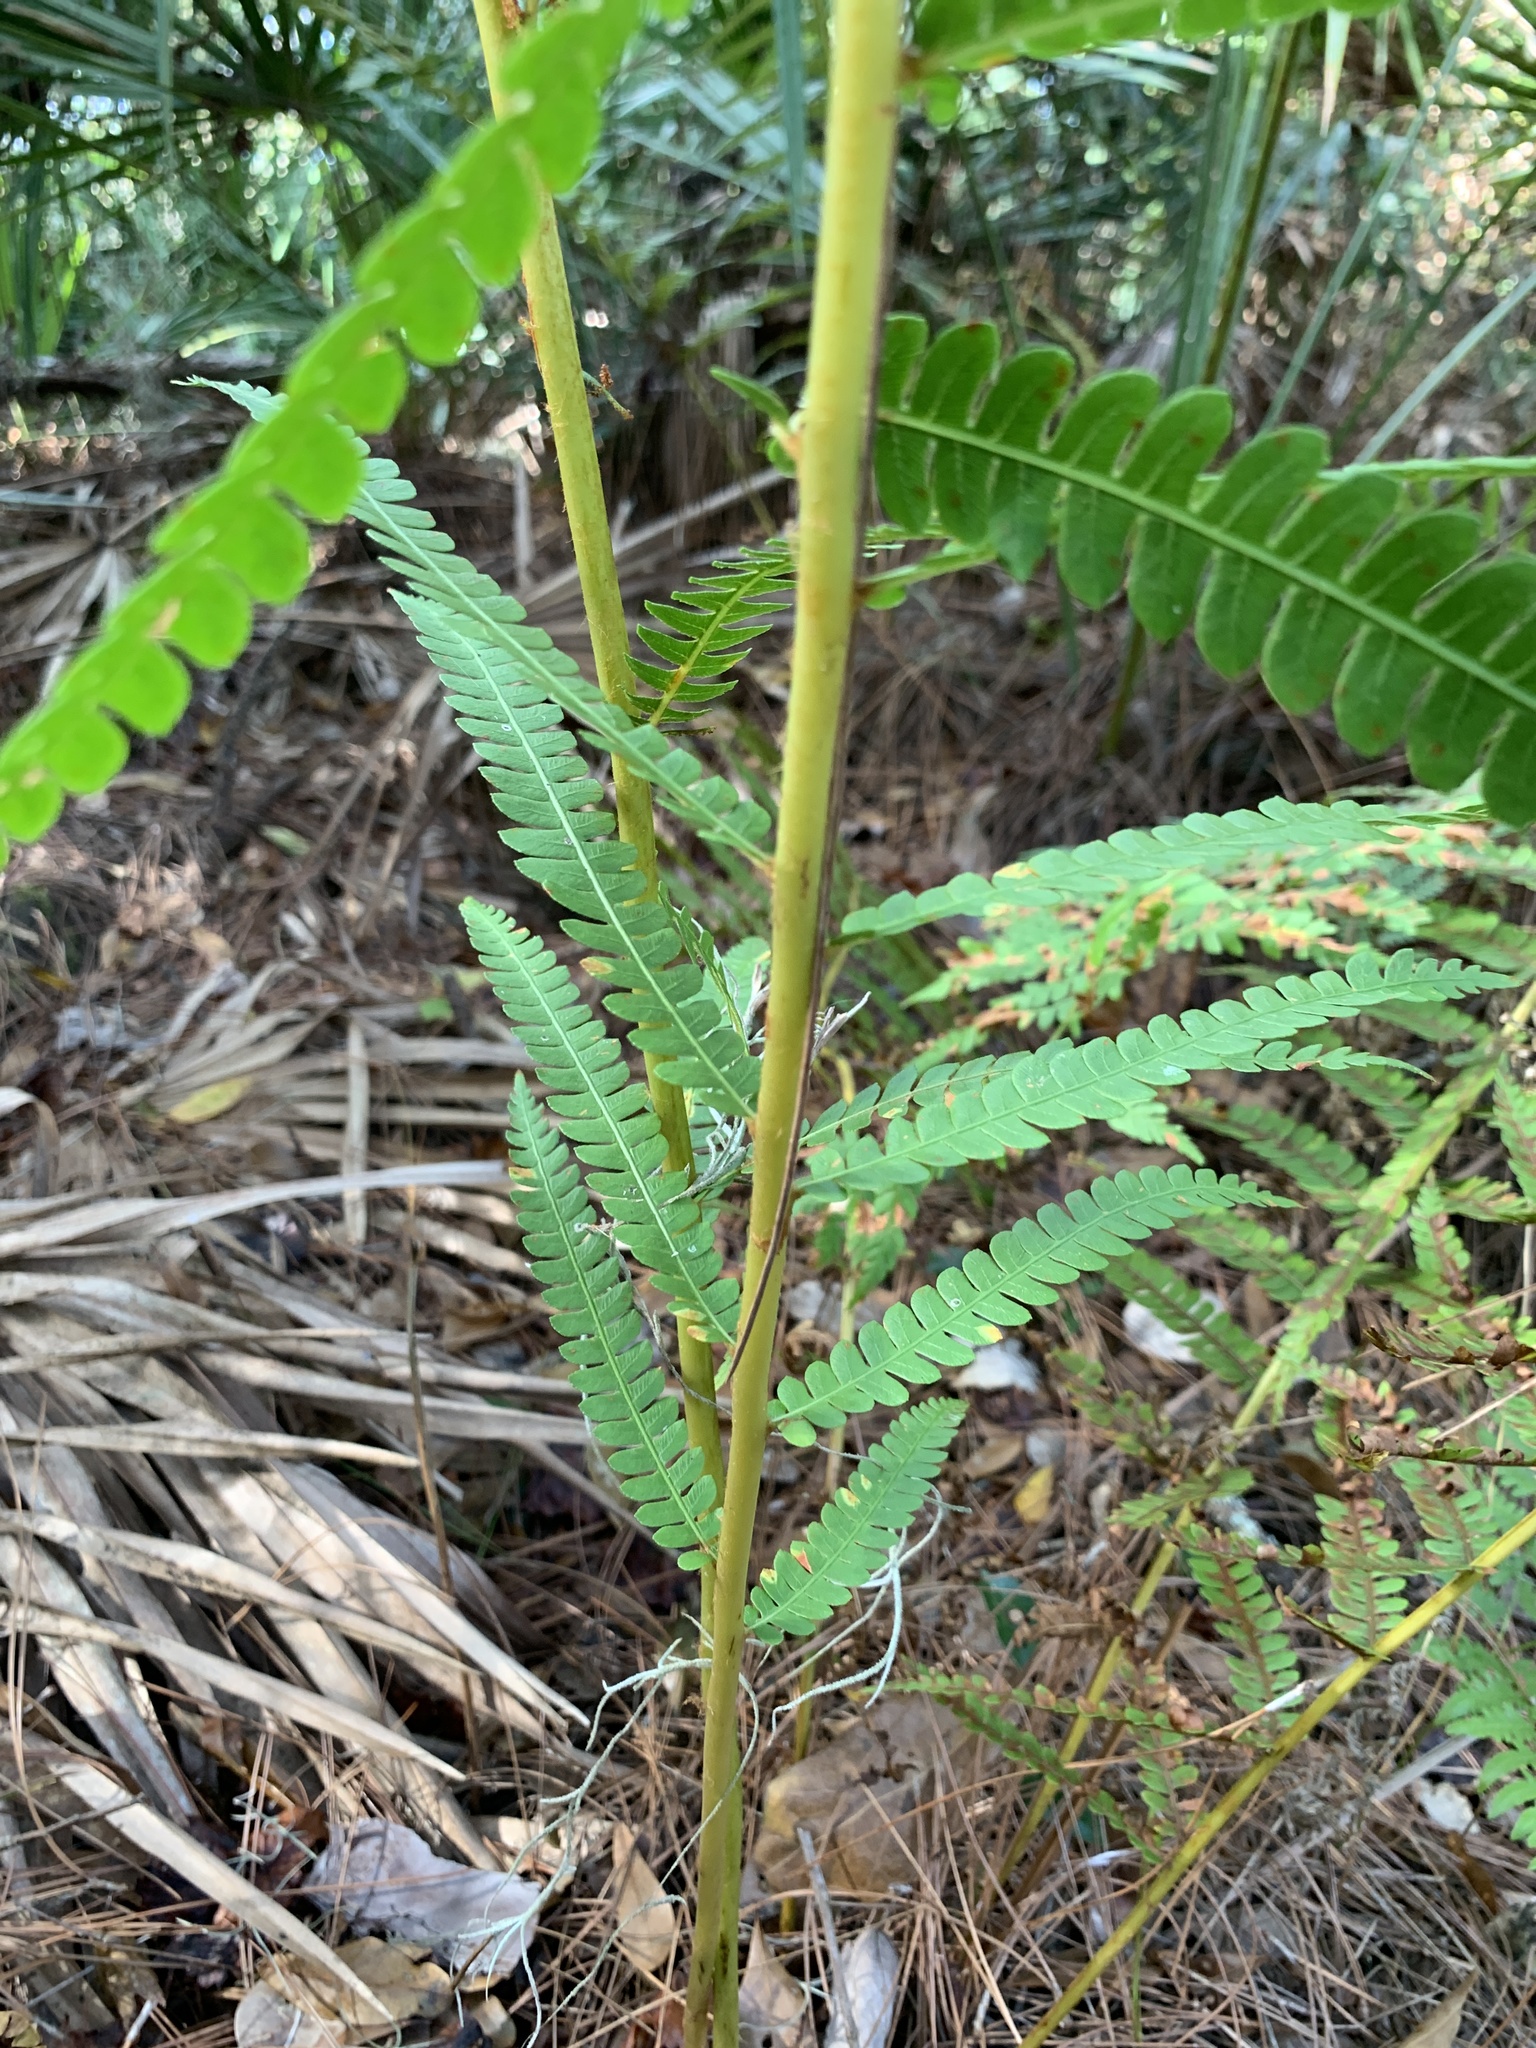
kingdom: Plantae
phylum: Tracheophyta
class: Polypodiopsida
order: Osmundales
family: Osmundaceae
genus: Osmundastrum
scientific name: Osmundastrum cinnamomeum
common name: Cinnamon fern
